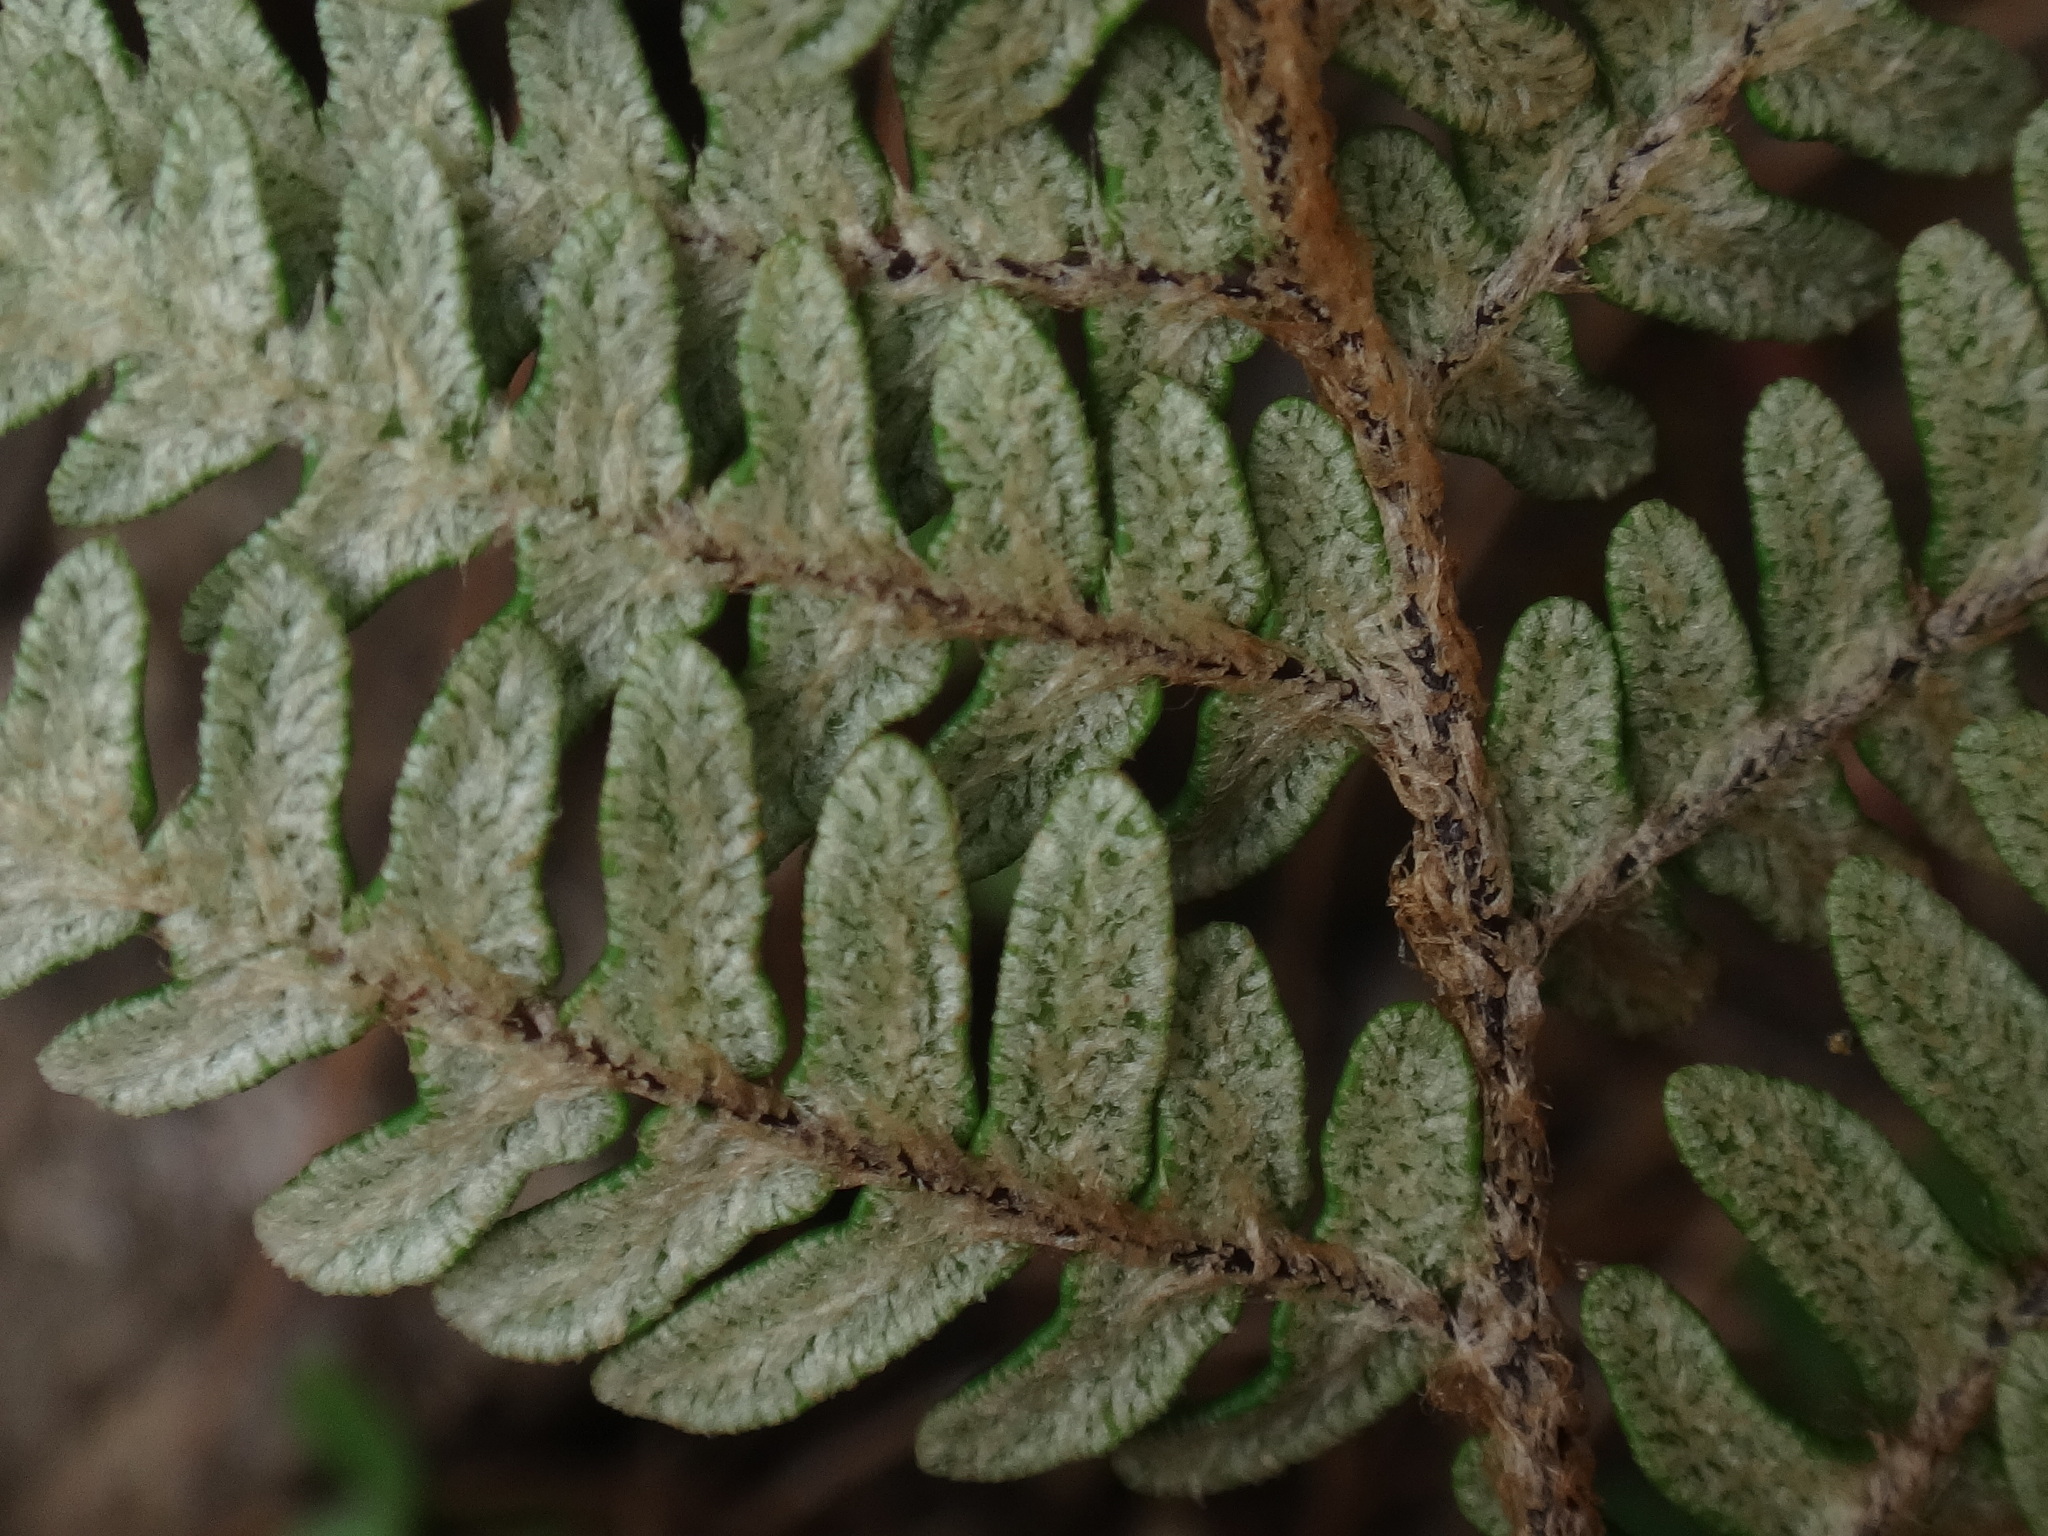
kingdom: Plantae
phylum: Tracheophyta
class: Polypodiopsida
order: Polypodiales
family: Pteridaceae
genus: Paragymnopteris
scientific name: Paragymnopteris marantae
